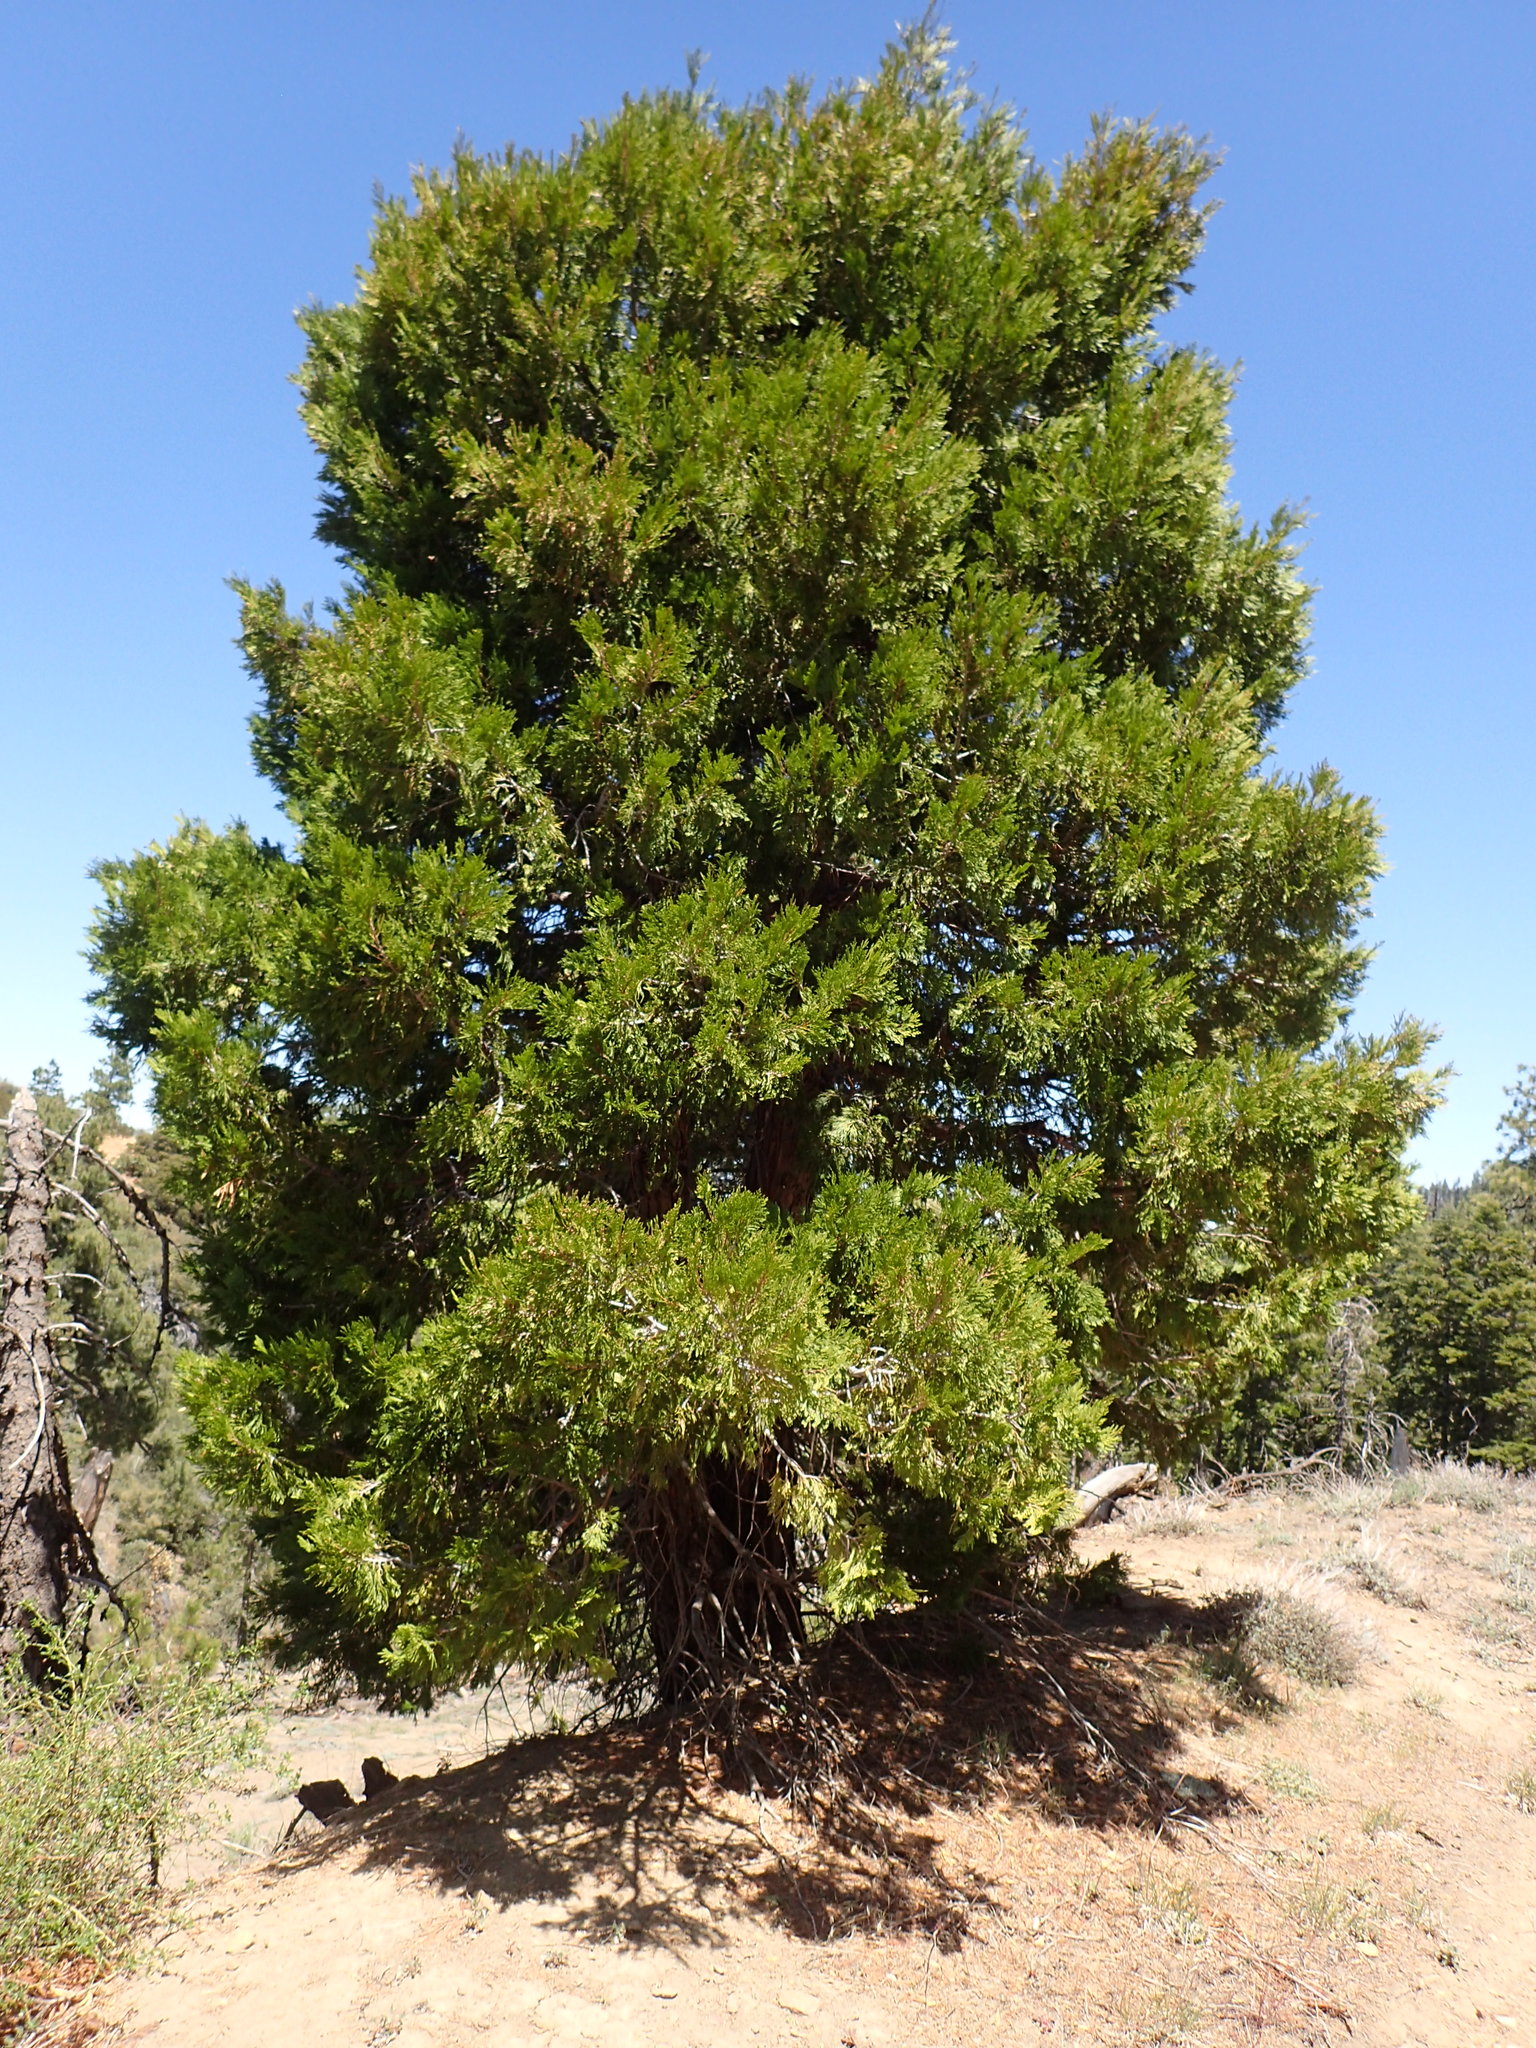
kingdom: Plantae
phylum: Tracheophyta
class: Pinopsida
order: Pinales
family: Cupressaceae
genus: Calocedrus
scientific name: Calocedrus decurrens
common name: Californian incense-cedar
